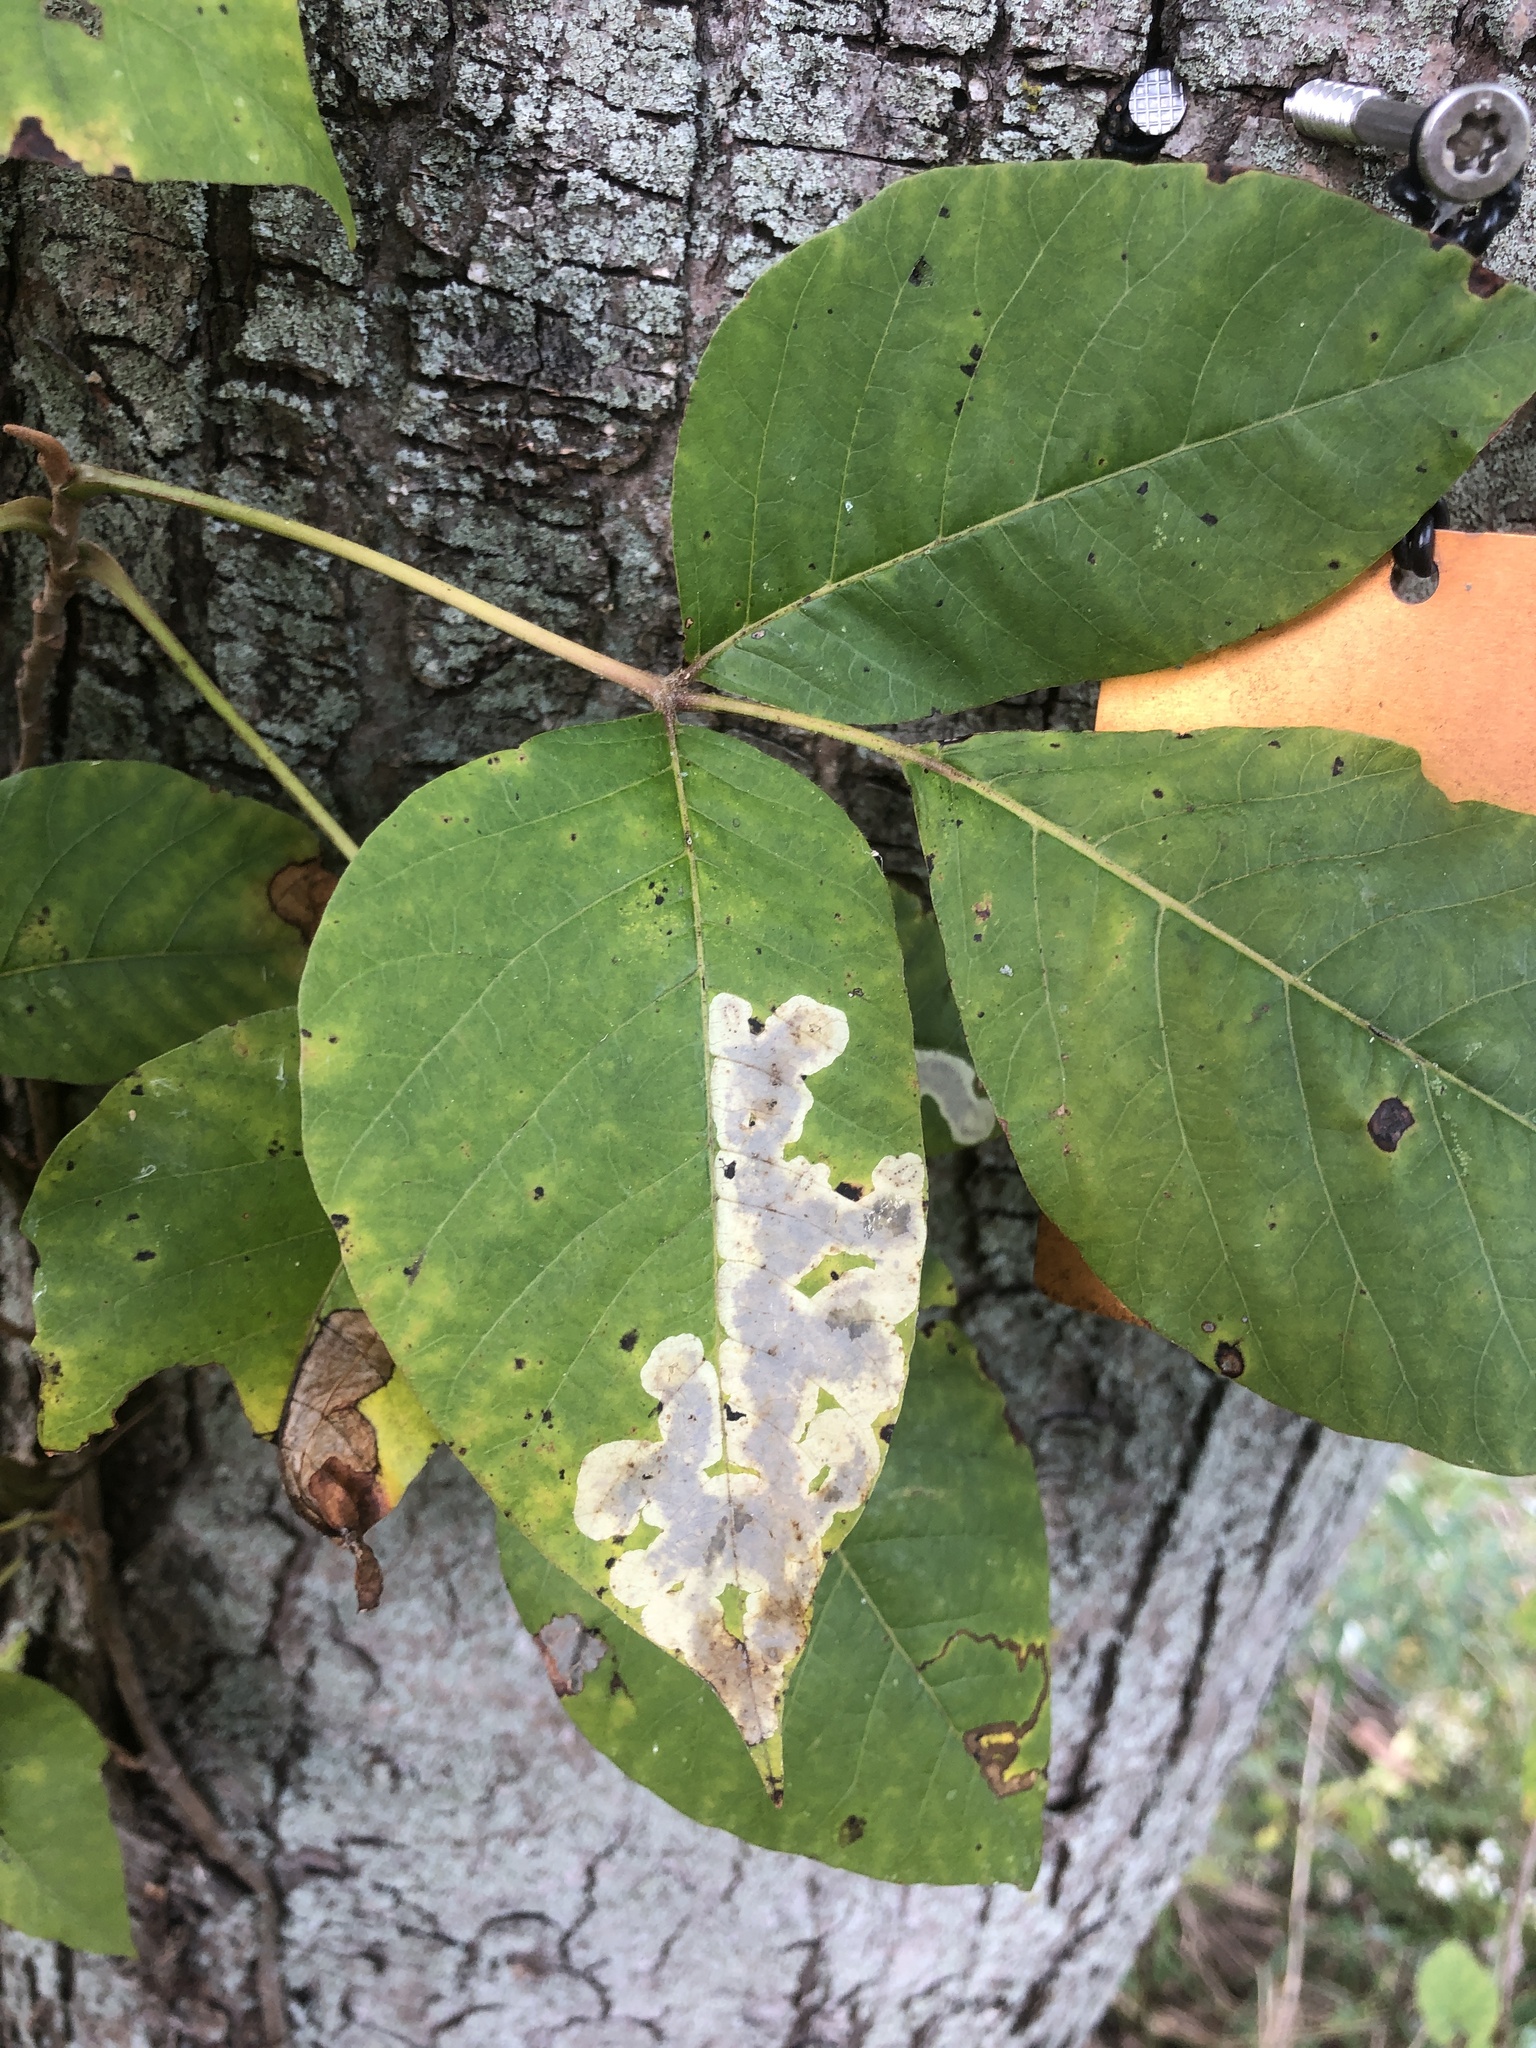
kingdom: Animalia
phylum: Arthropoda
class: Insecta
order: Lepidoptera
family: Gracillariidae
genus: Cameraria
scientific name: Cameraria guttifinitella
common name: Poison ivy leaf-miner moth
